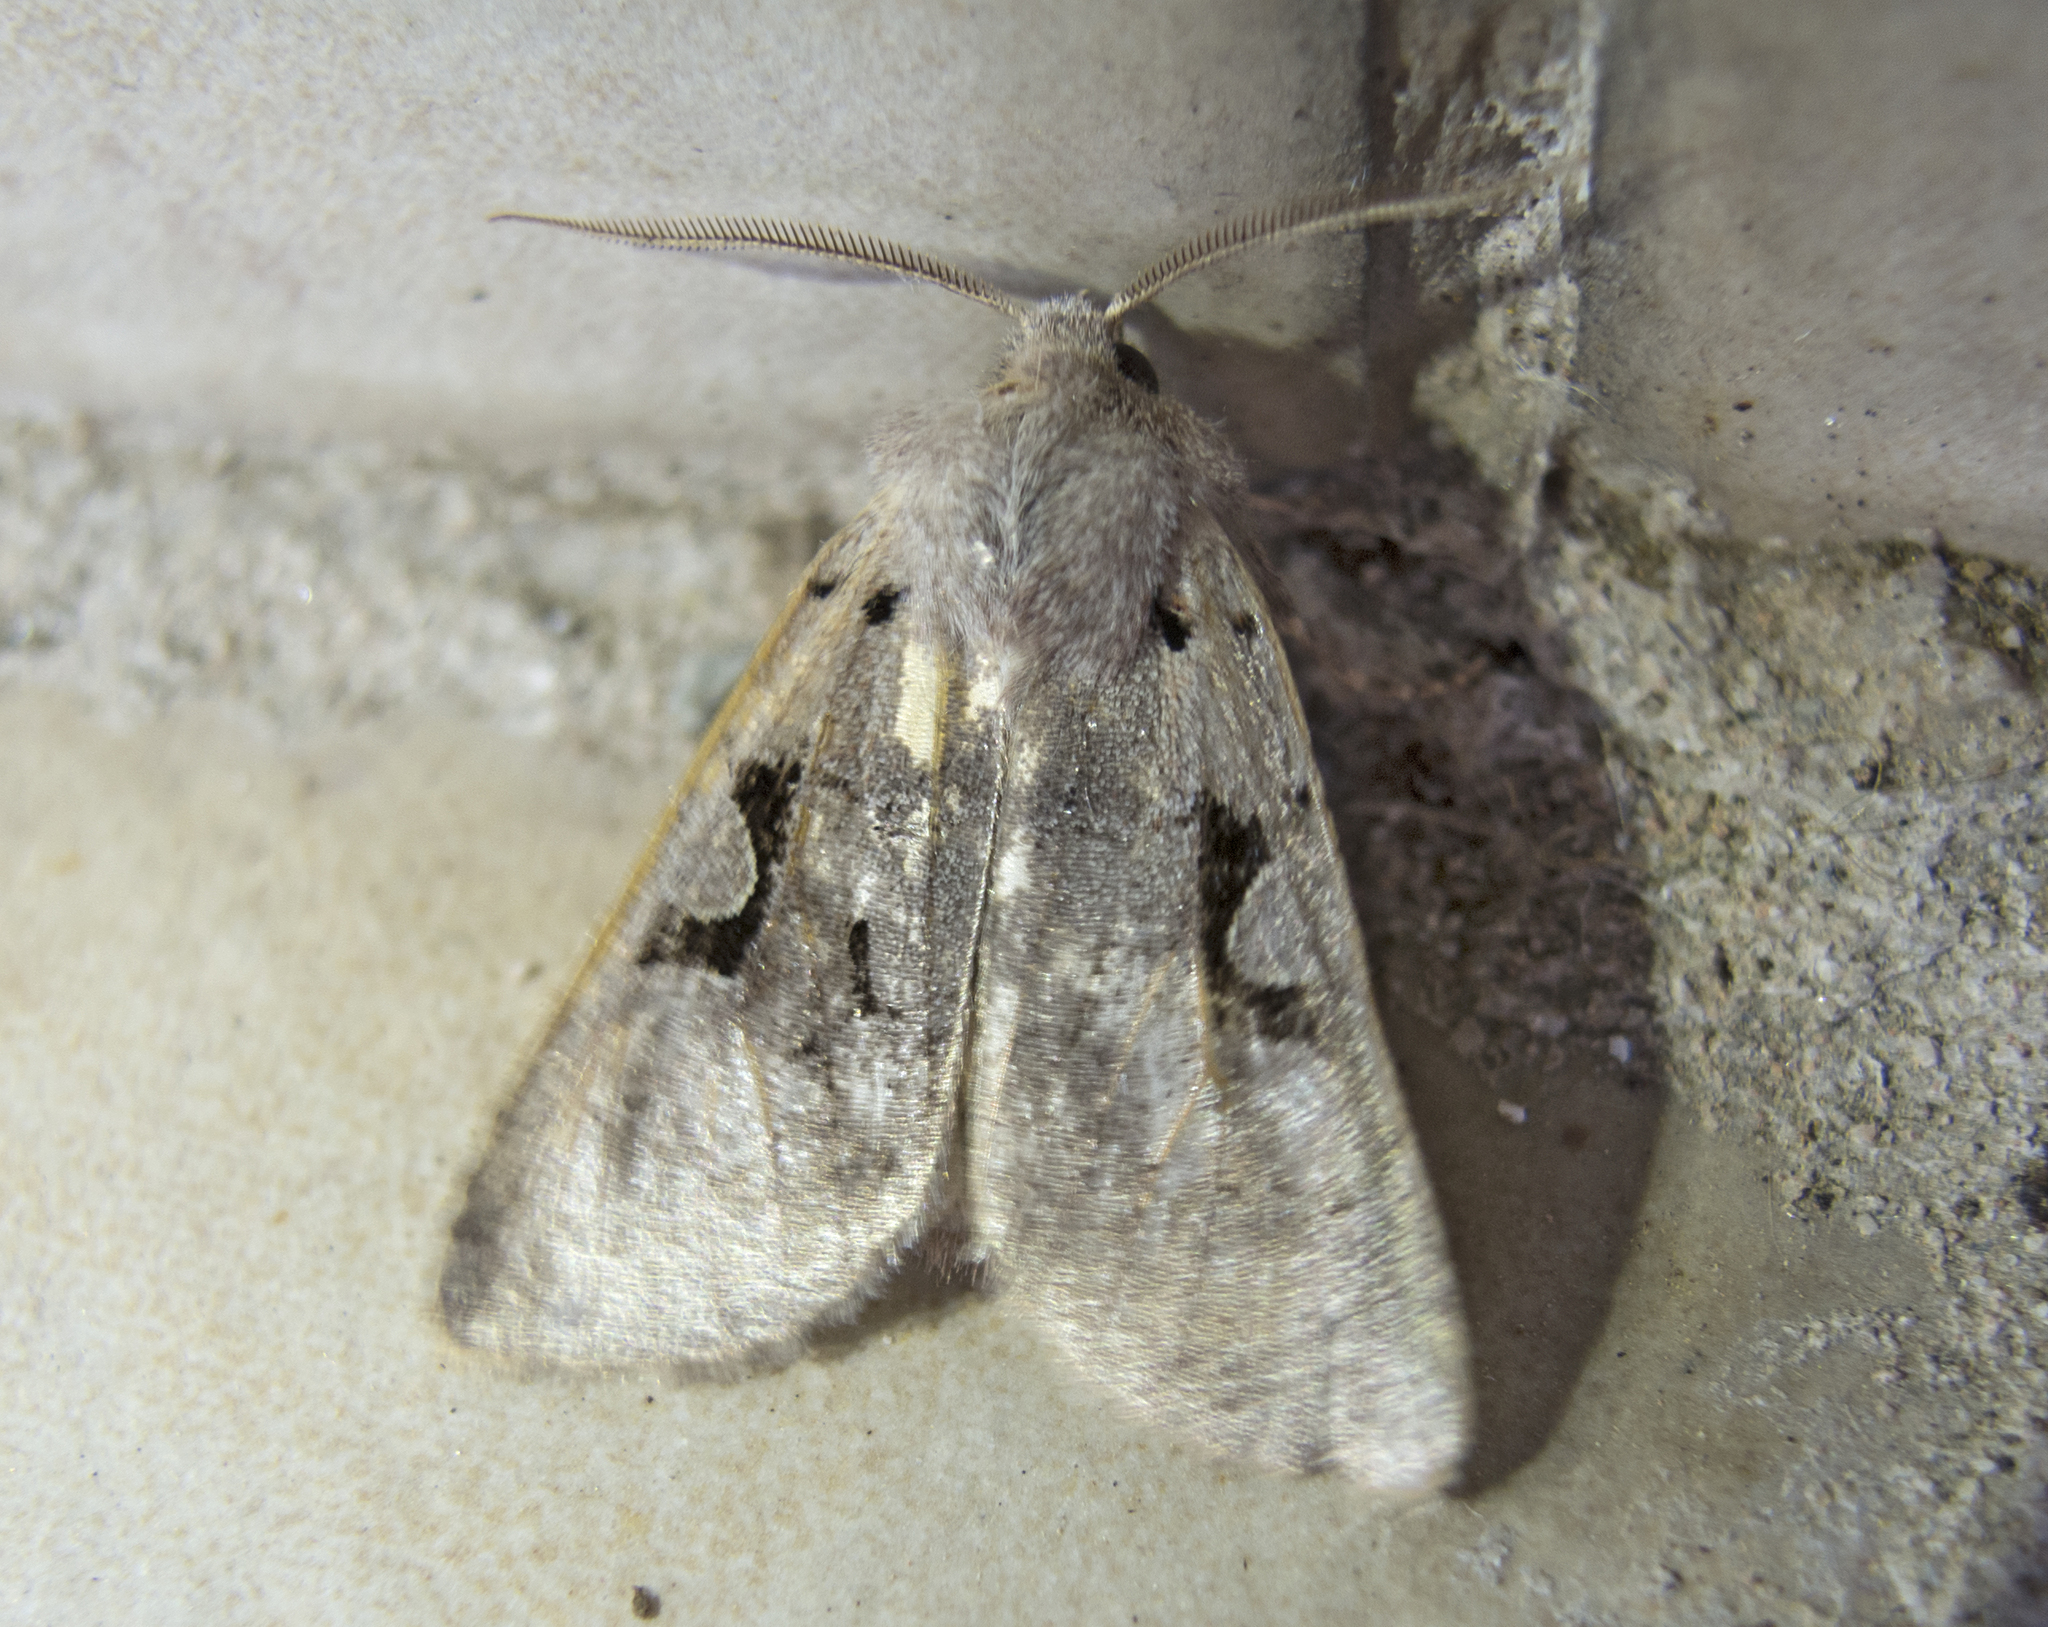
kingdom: Animalia
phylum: Arthropoda
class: Insecta
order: Lepidoptera
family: Noctuidae
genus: Orthosia
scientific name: Orthosia gothica
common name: Hebrew character
